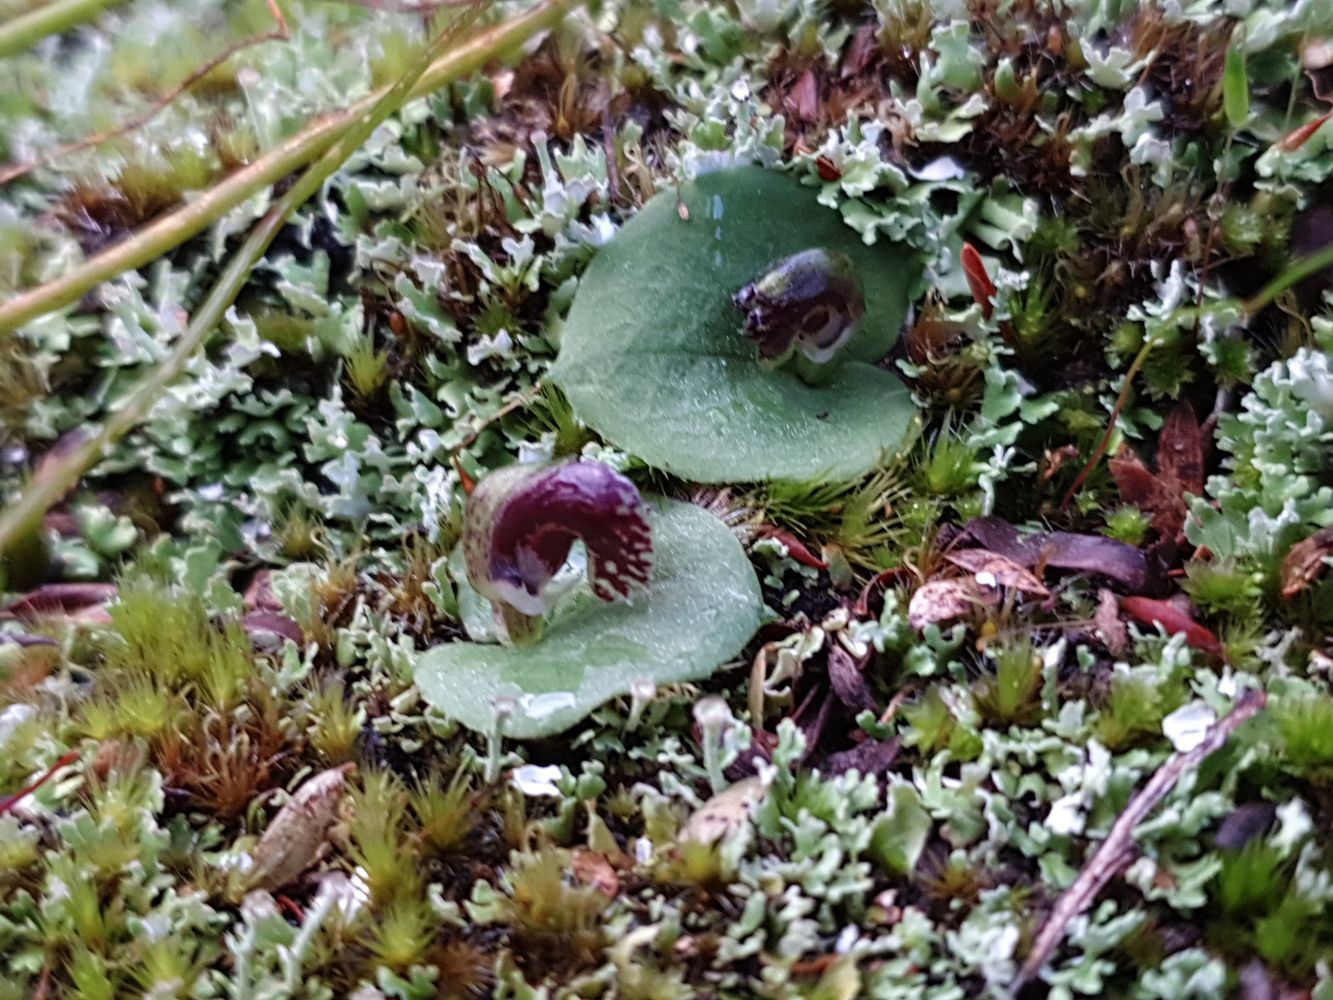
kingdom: Plantae
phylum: Tracheophyta
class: Liliopsida
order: Asparagales
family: Orchidaceae
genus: Corybas
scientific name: Corybas despectans
